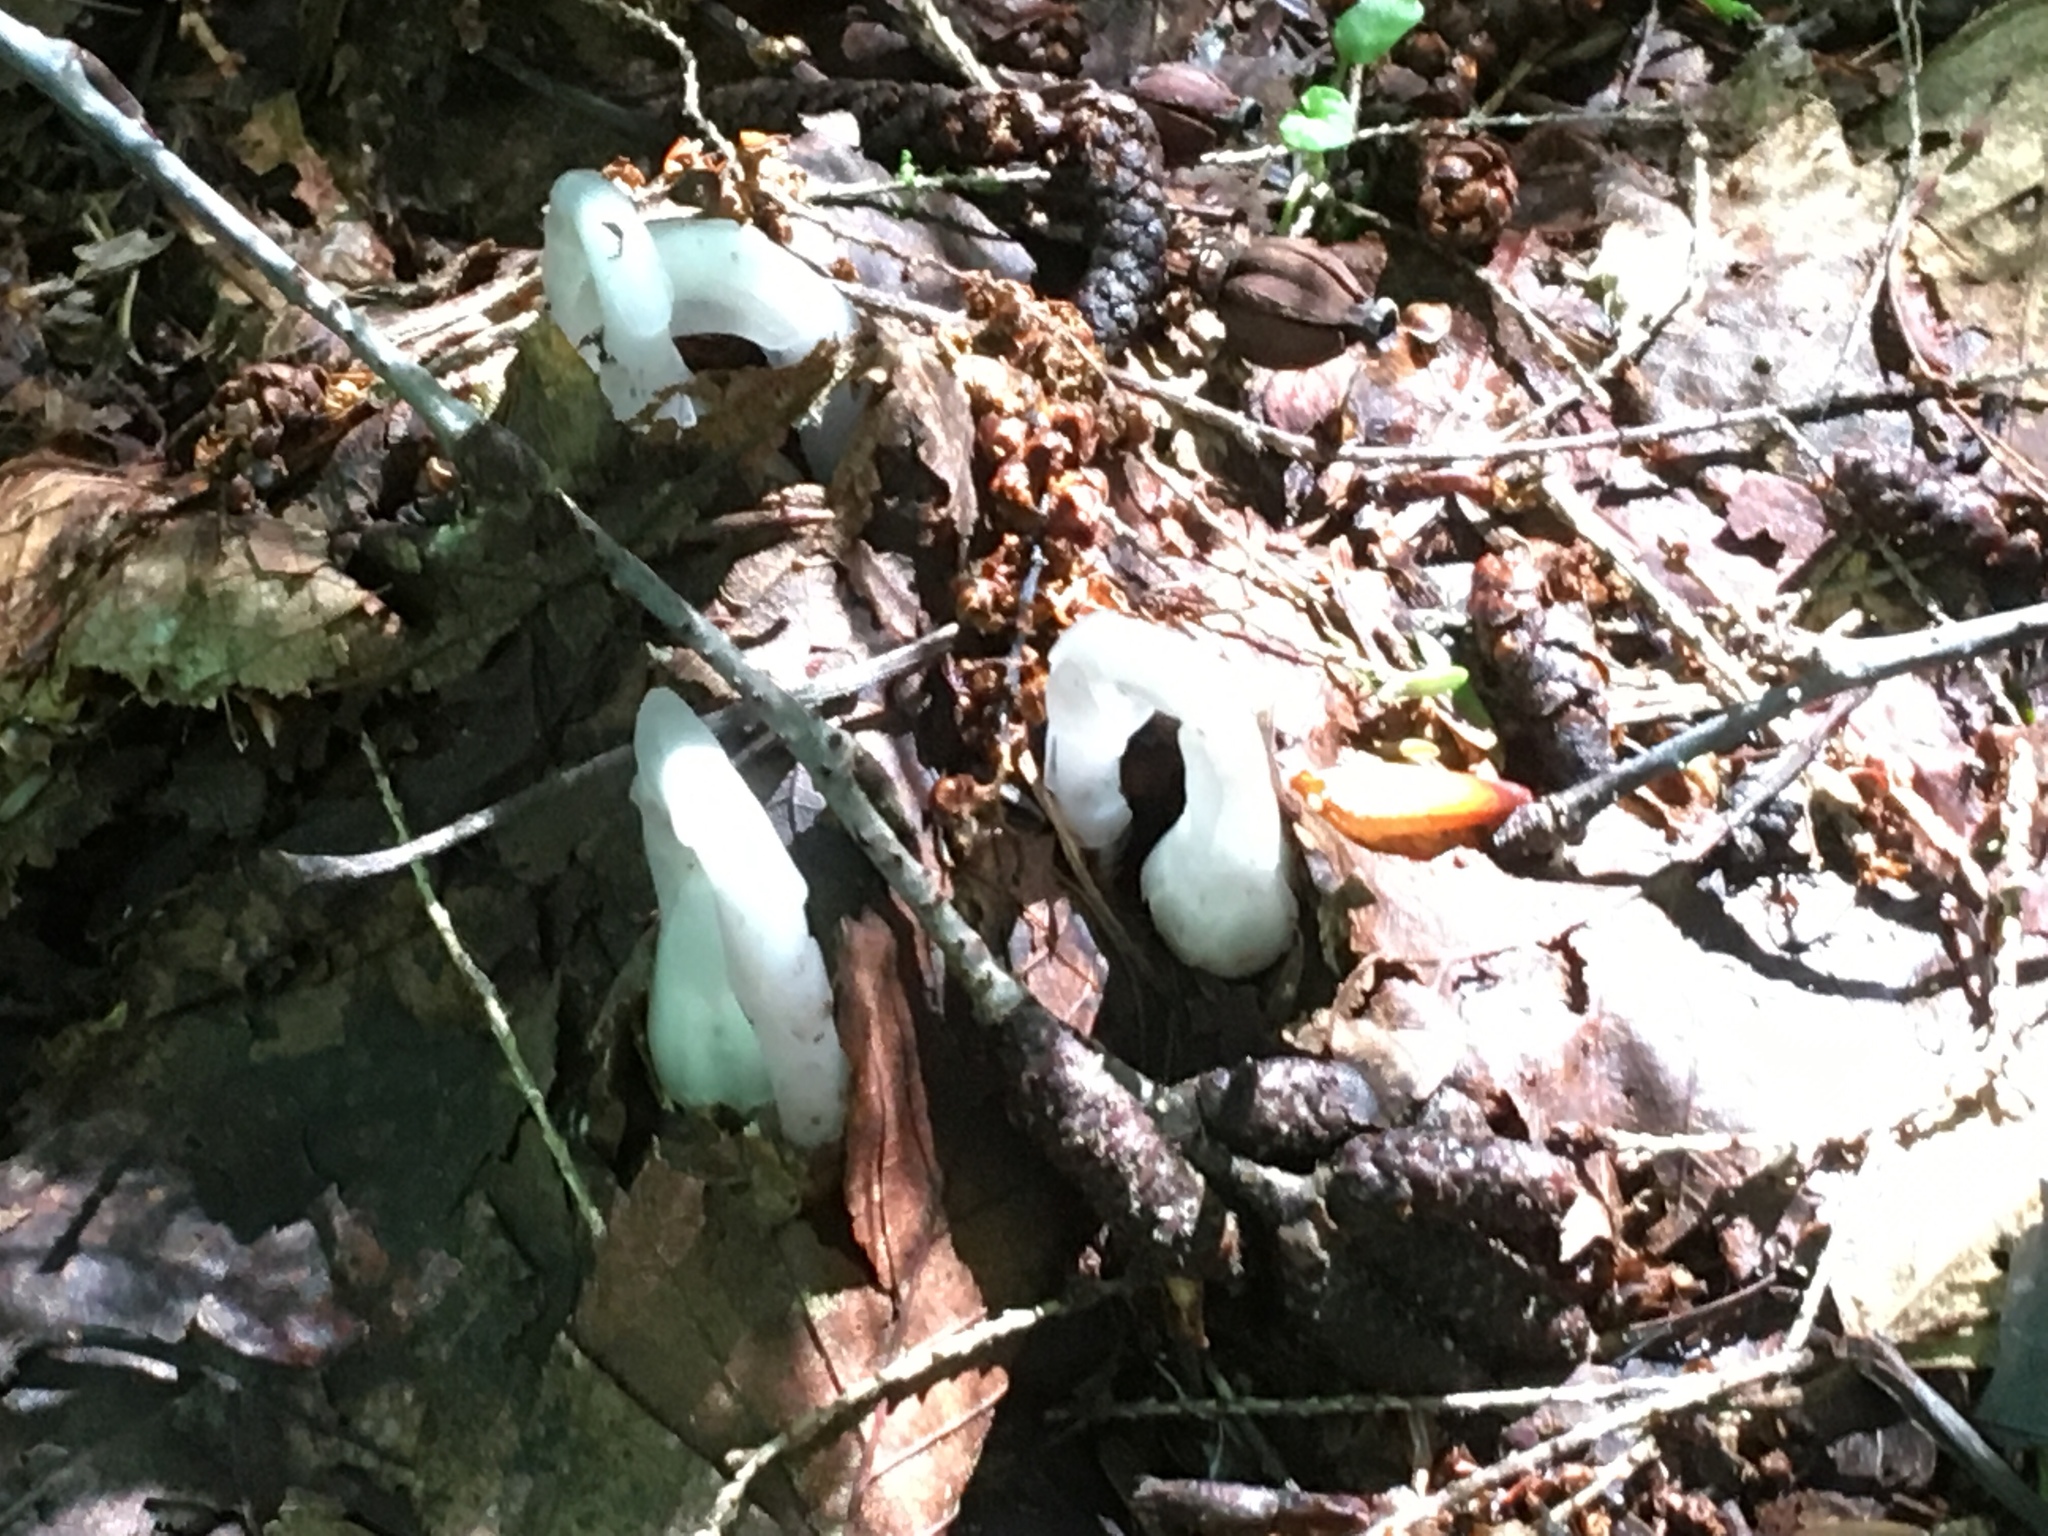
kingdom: Plantae
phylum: Tracheophyta
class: Magnoliopsida
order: Ericales
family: Ericaceae
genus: Monotropa
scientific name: Monotropa uniflora
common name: Convulsion root
